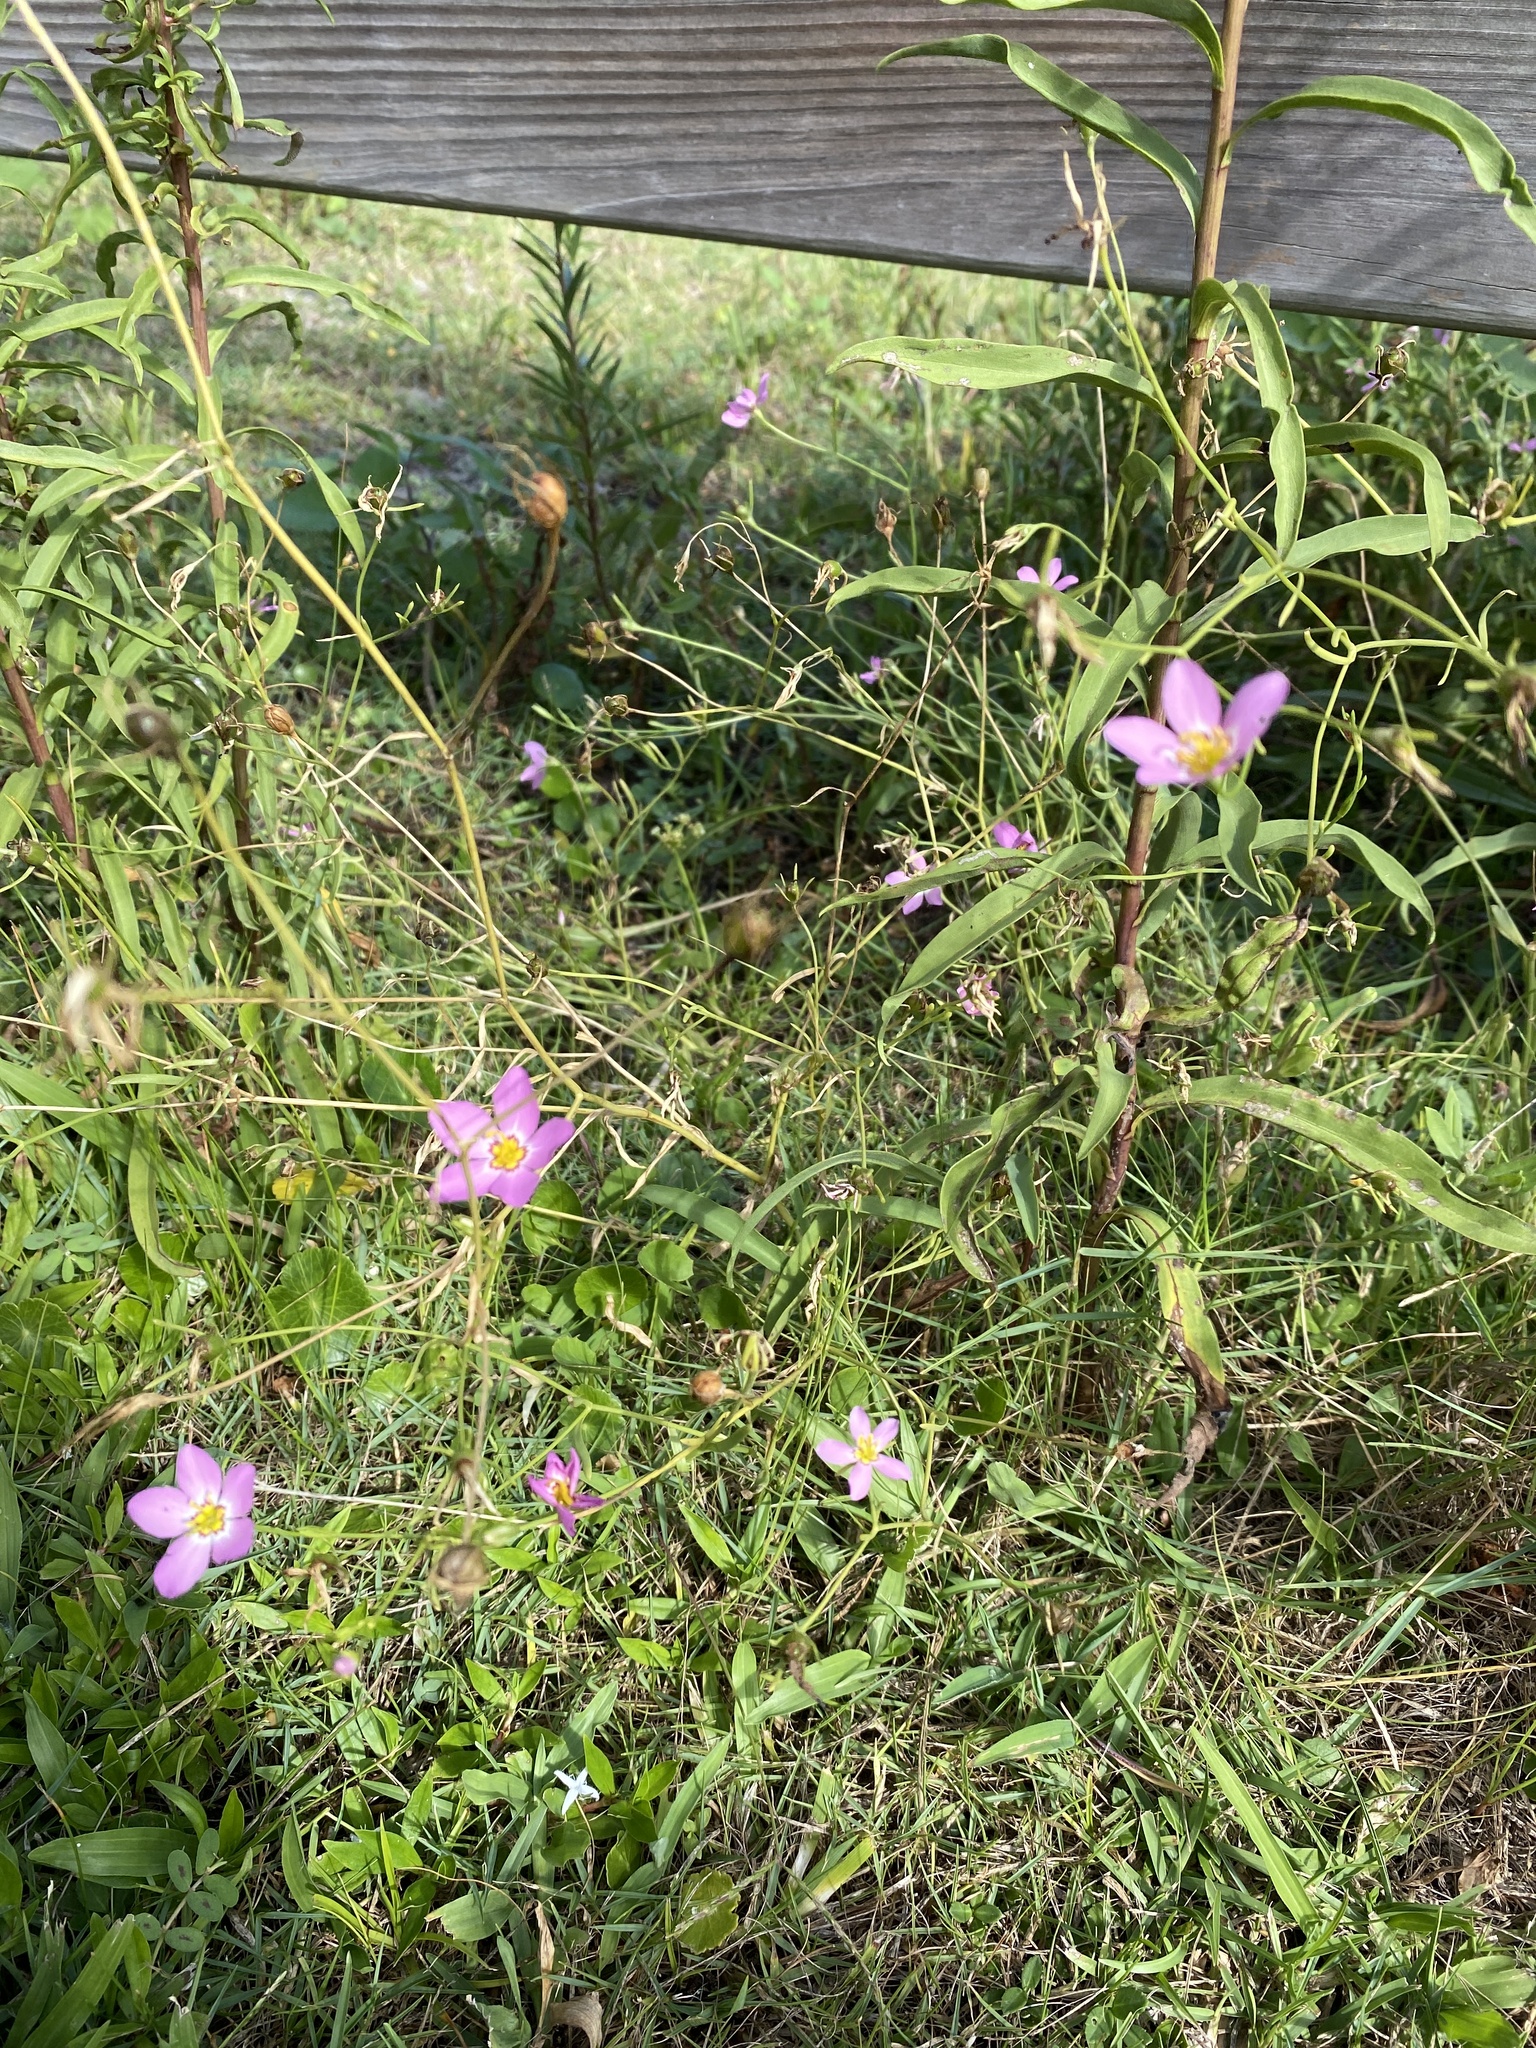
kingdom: Plantae
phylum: Tracheophyta
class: Magnoliopsida
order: Gentianales
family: Gentianaceae
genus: Sabatia
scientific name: Sabatia stellaris
